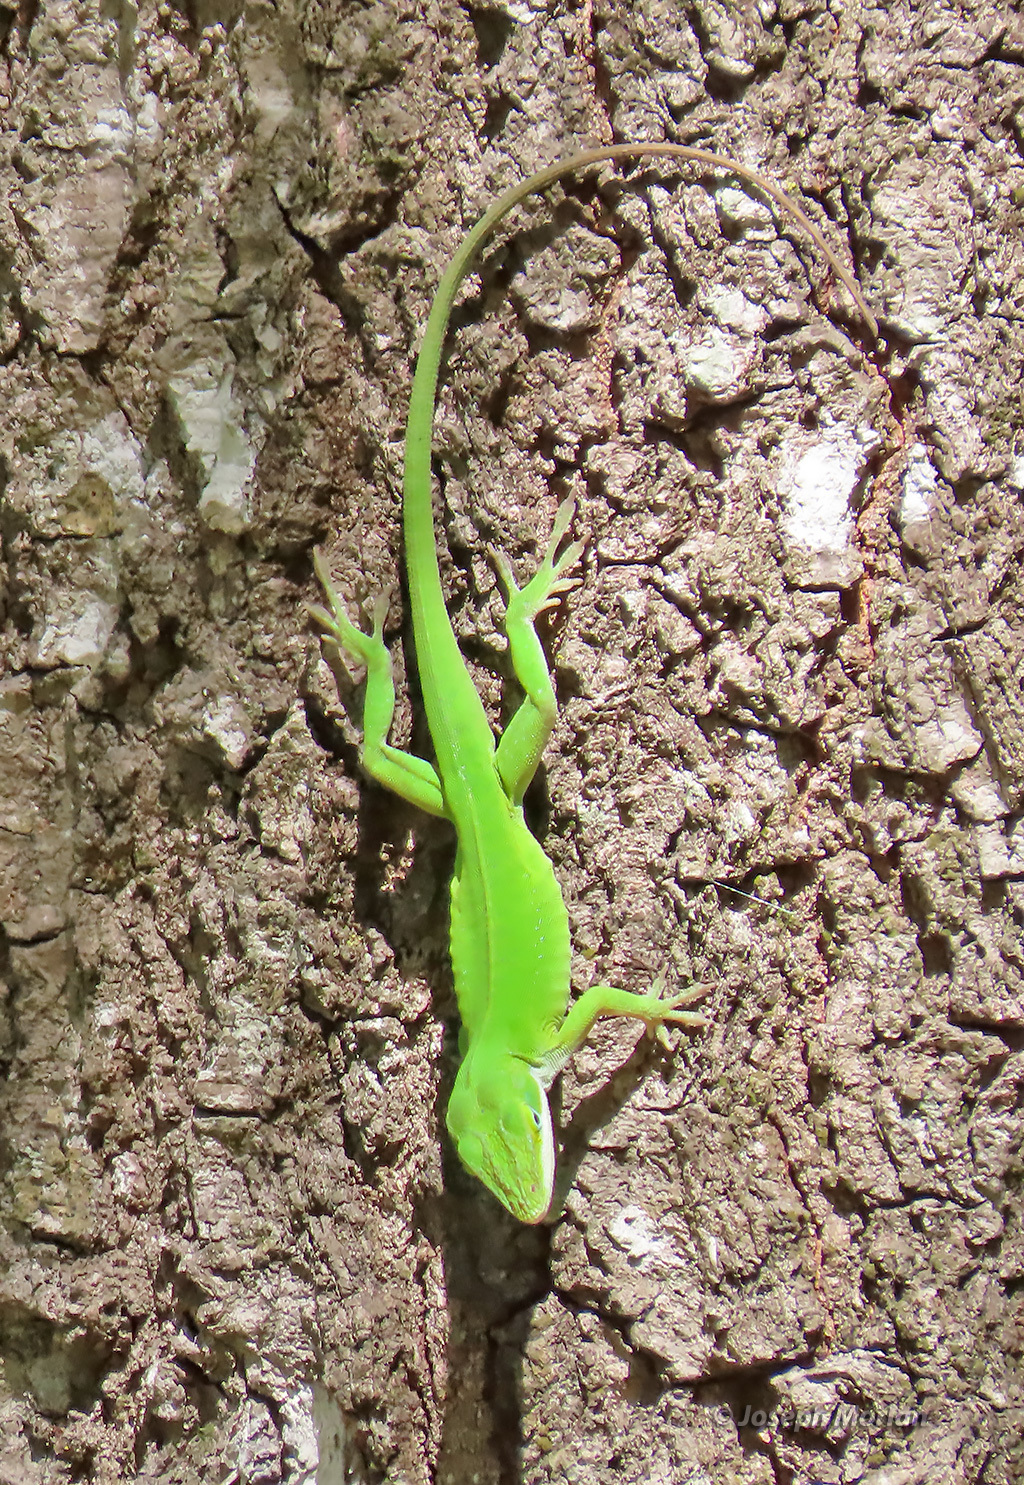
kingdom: Animalia
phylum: Chordata
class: Squamata
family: Dactyloidae
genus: Anolis
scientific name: Anolis carolinensis
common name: Green anole
